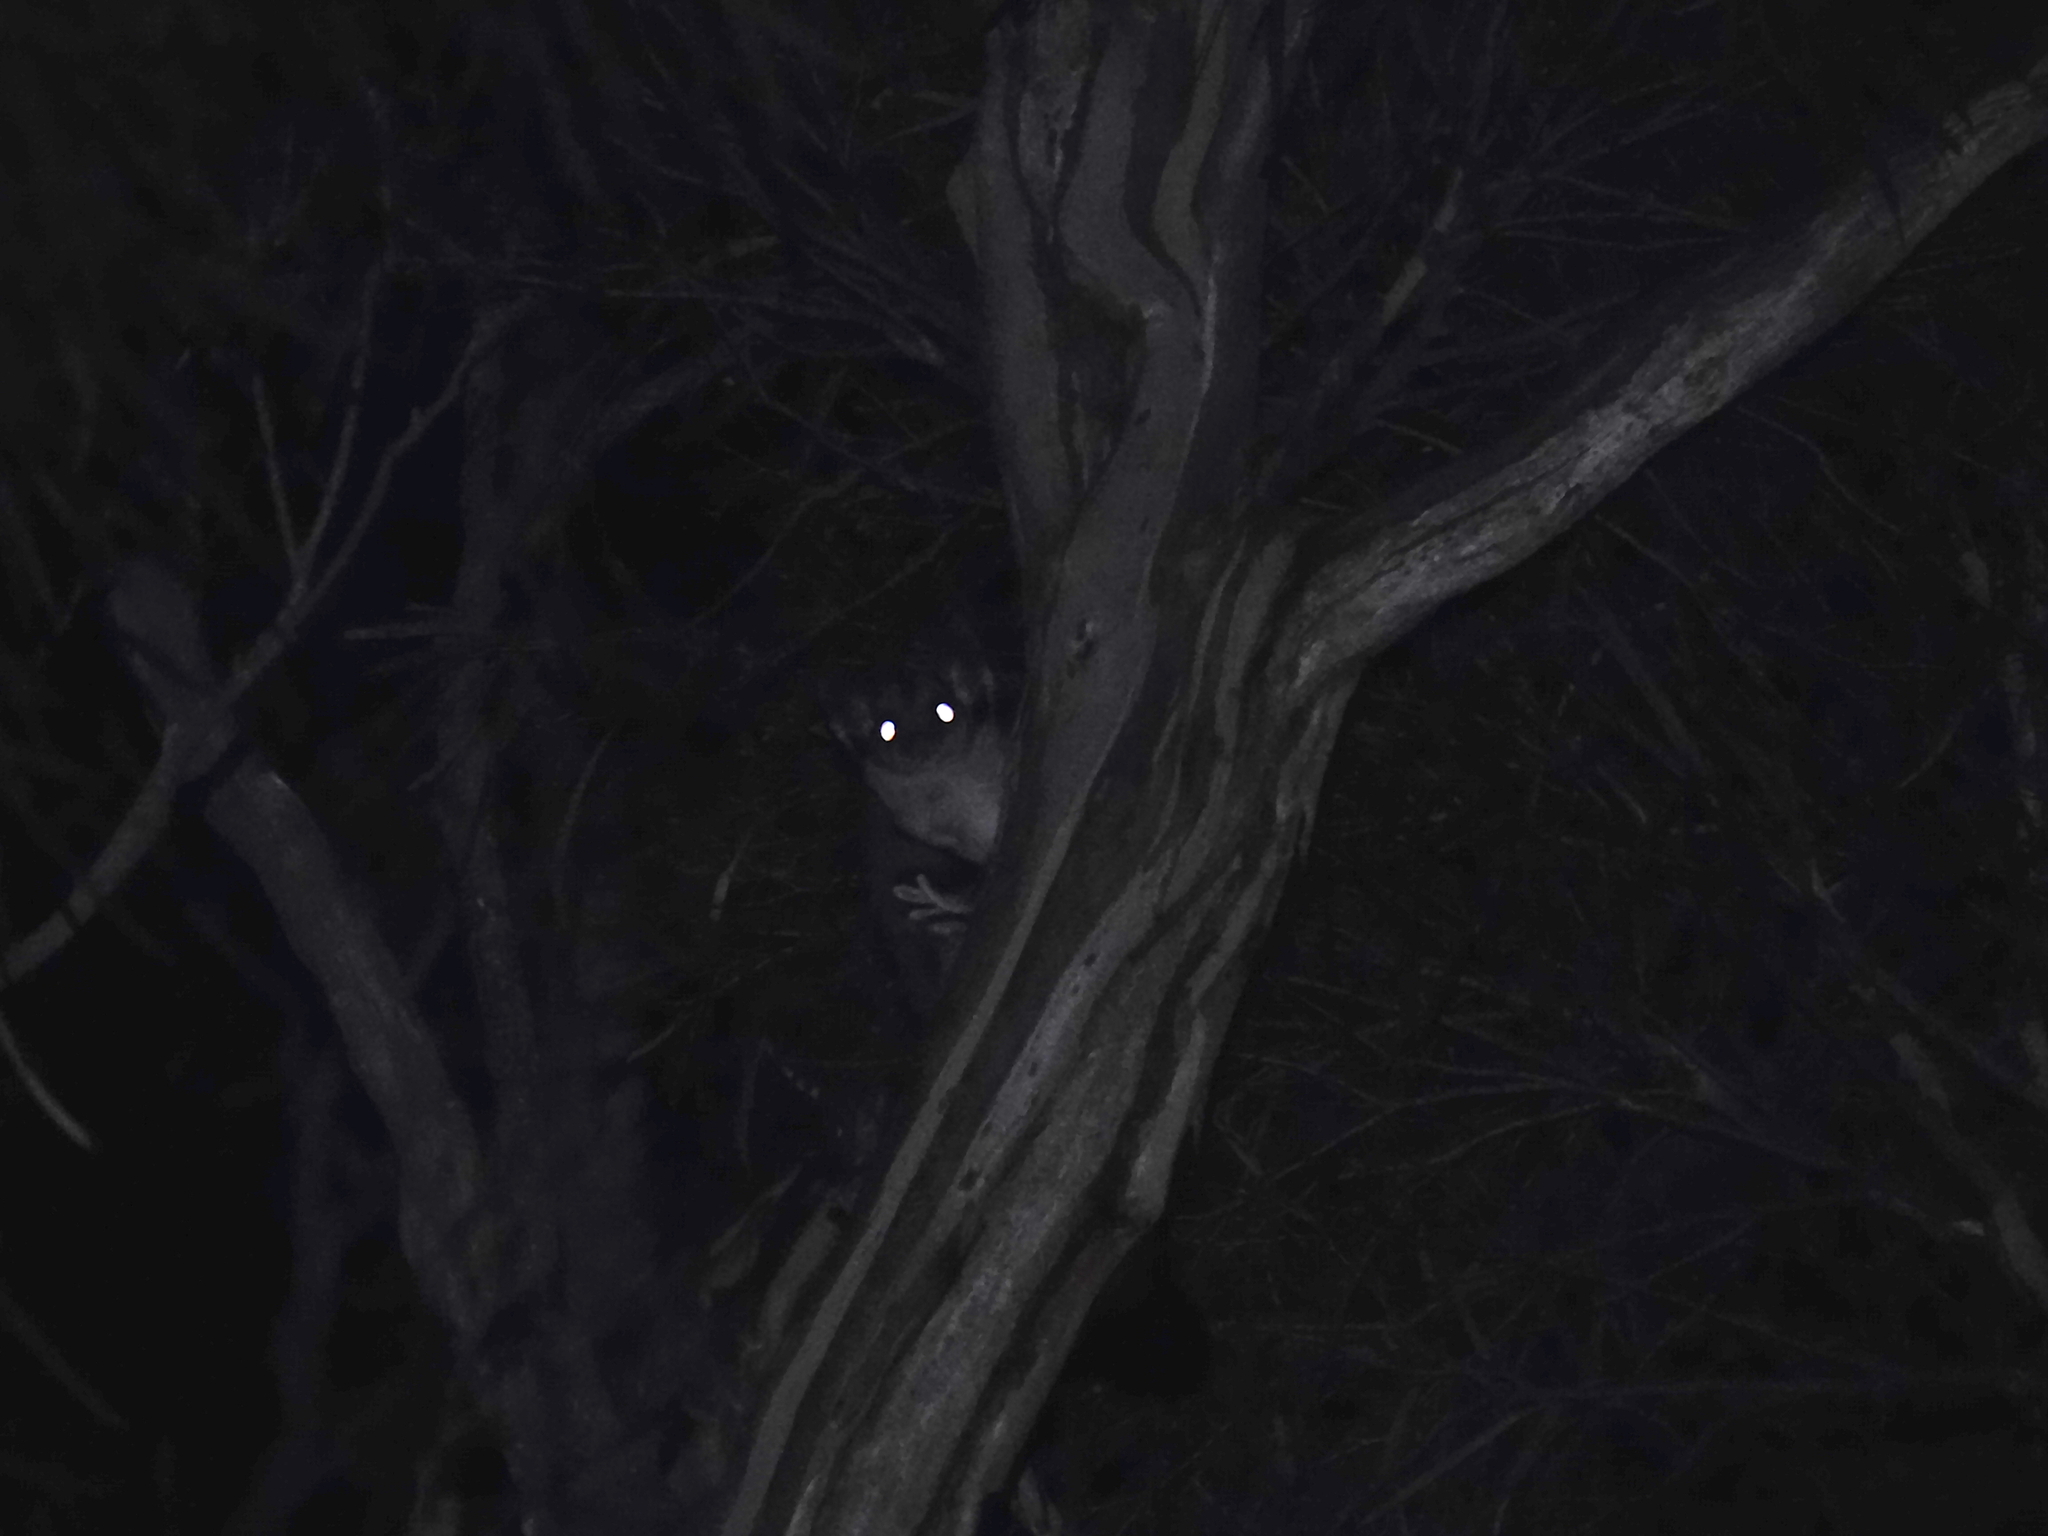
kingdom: Animalia
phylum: Chordata
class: Mammalia
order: Diprotodontia
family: Petauridae
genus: Petaurus
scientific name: Petaurus breviceps
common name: Sugar glider
